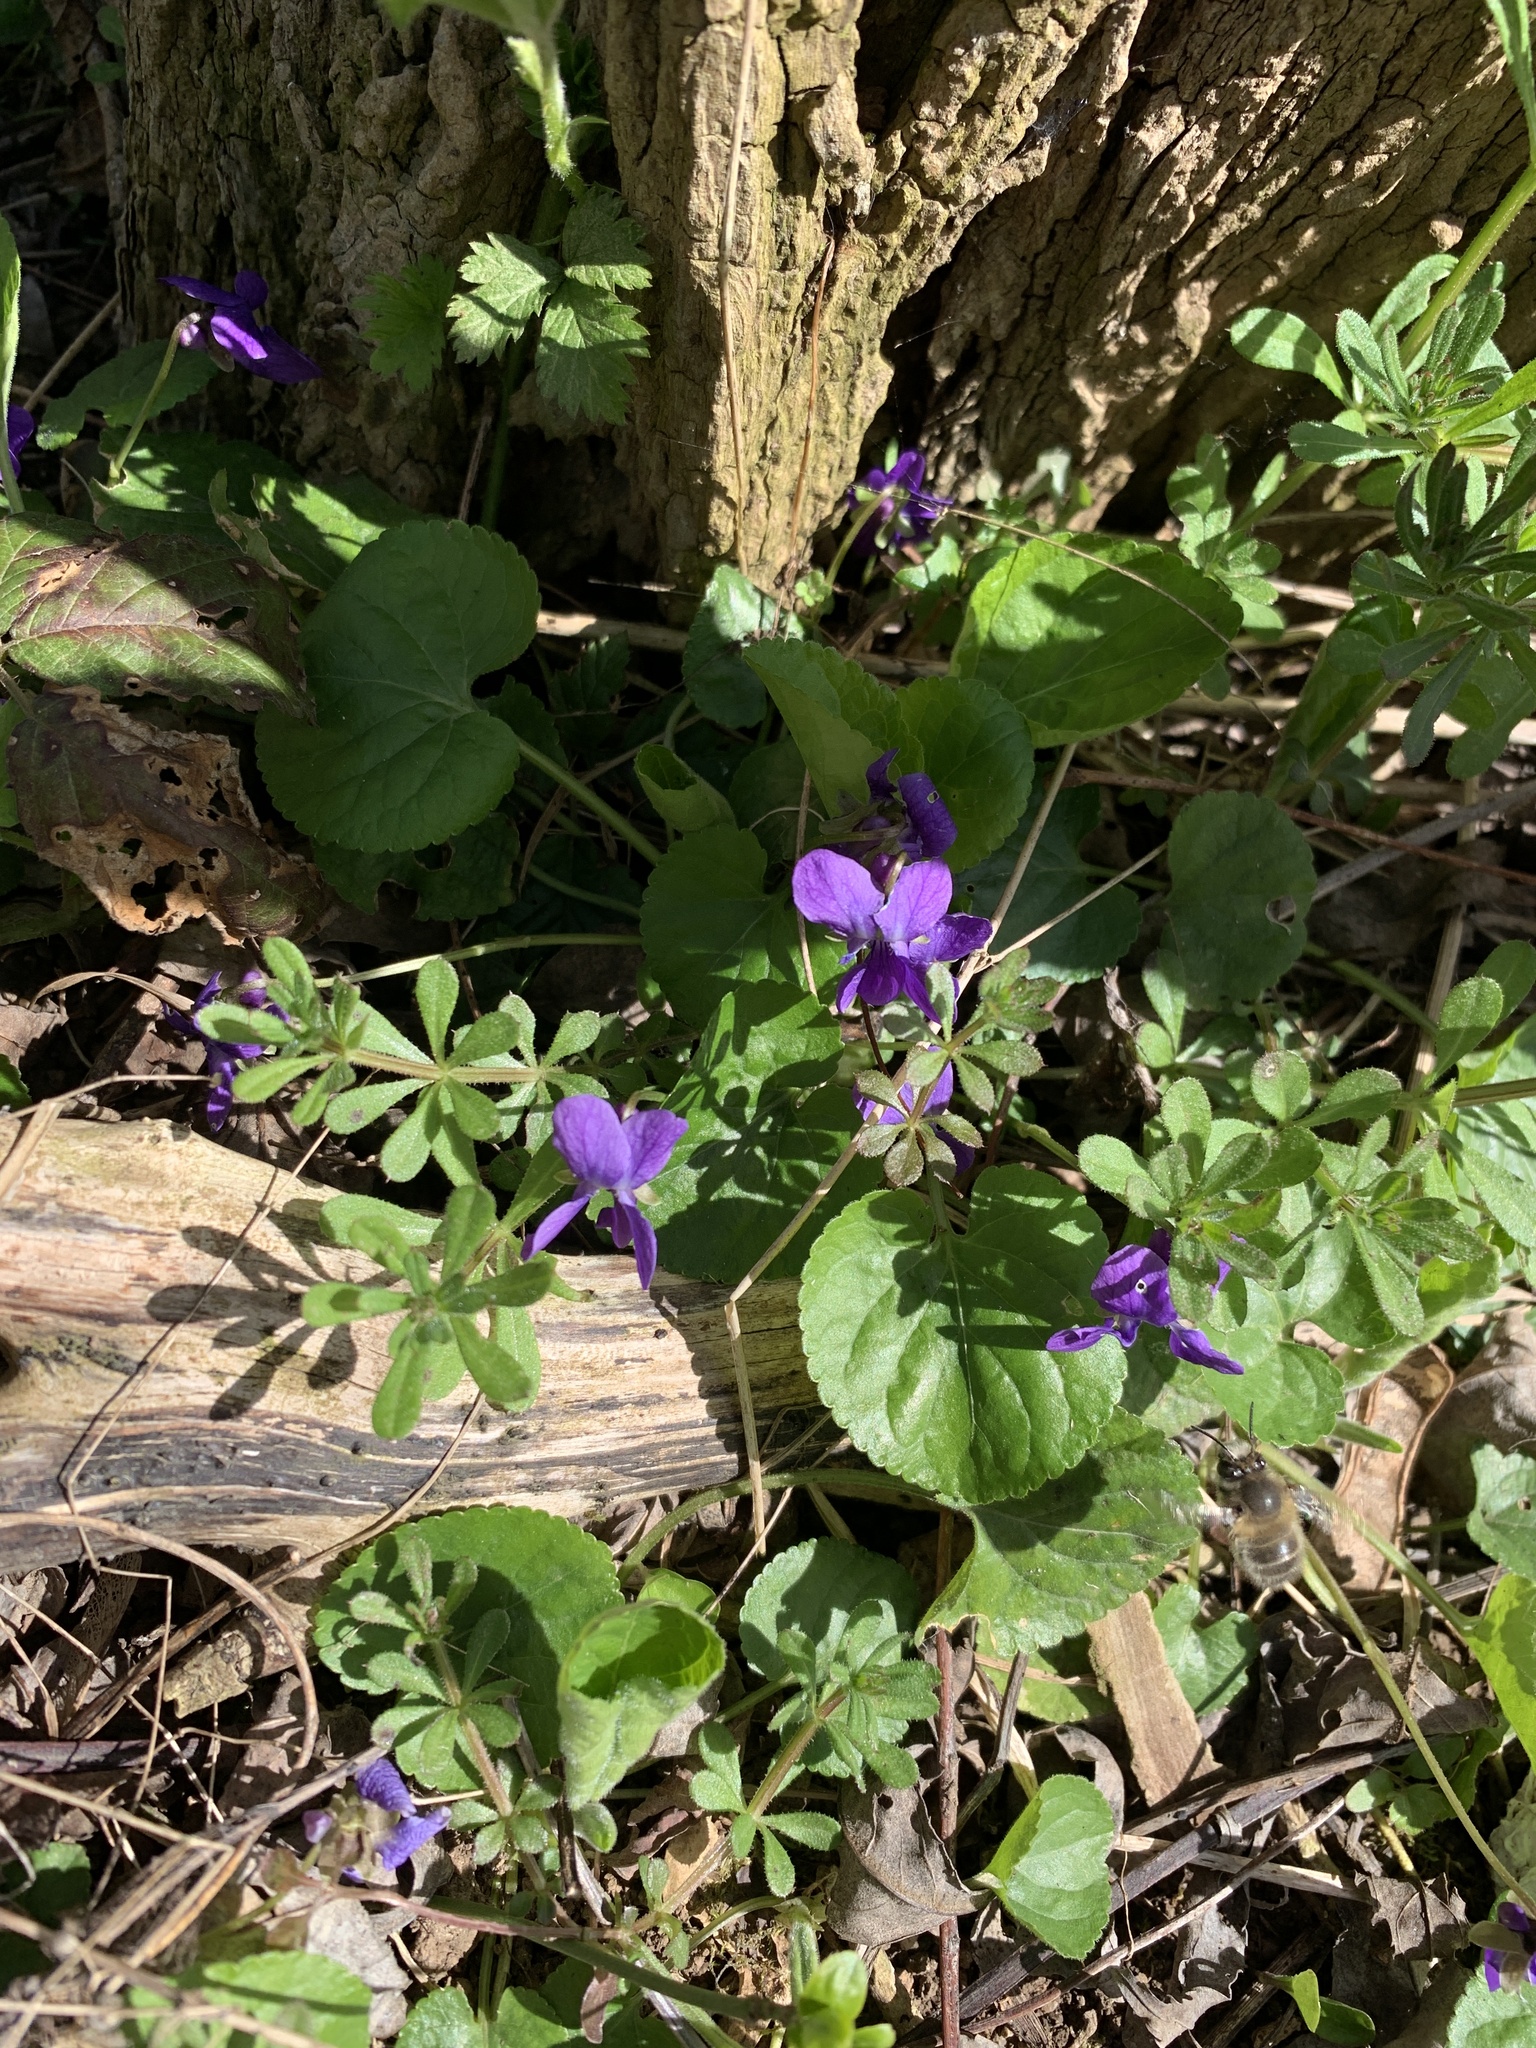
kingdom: Plantae
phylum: Tracheophyta
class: Magnoliopsida
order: Malpighiales
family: Violaceae
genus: Viola
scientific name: Viola odorata
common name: Sweet violet
